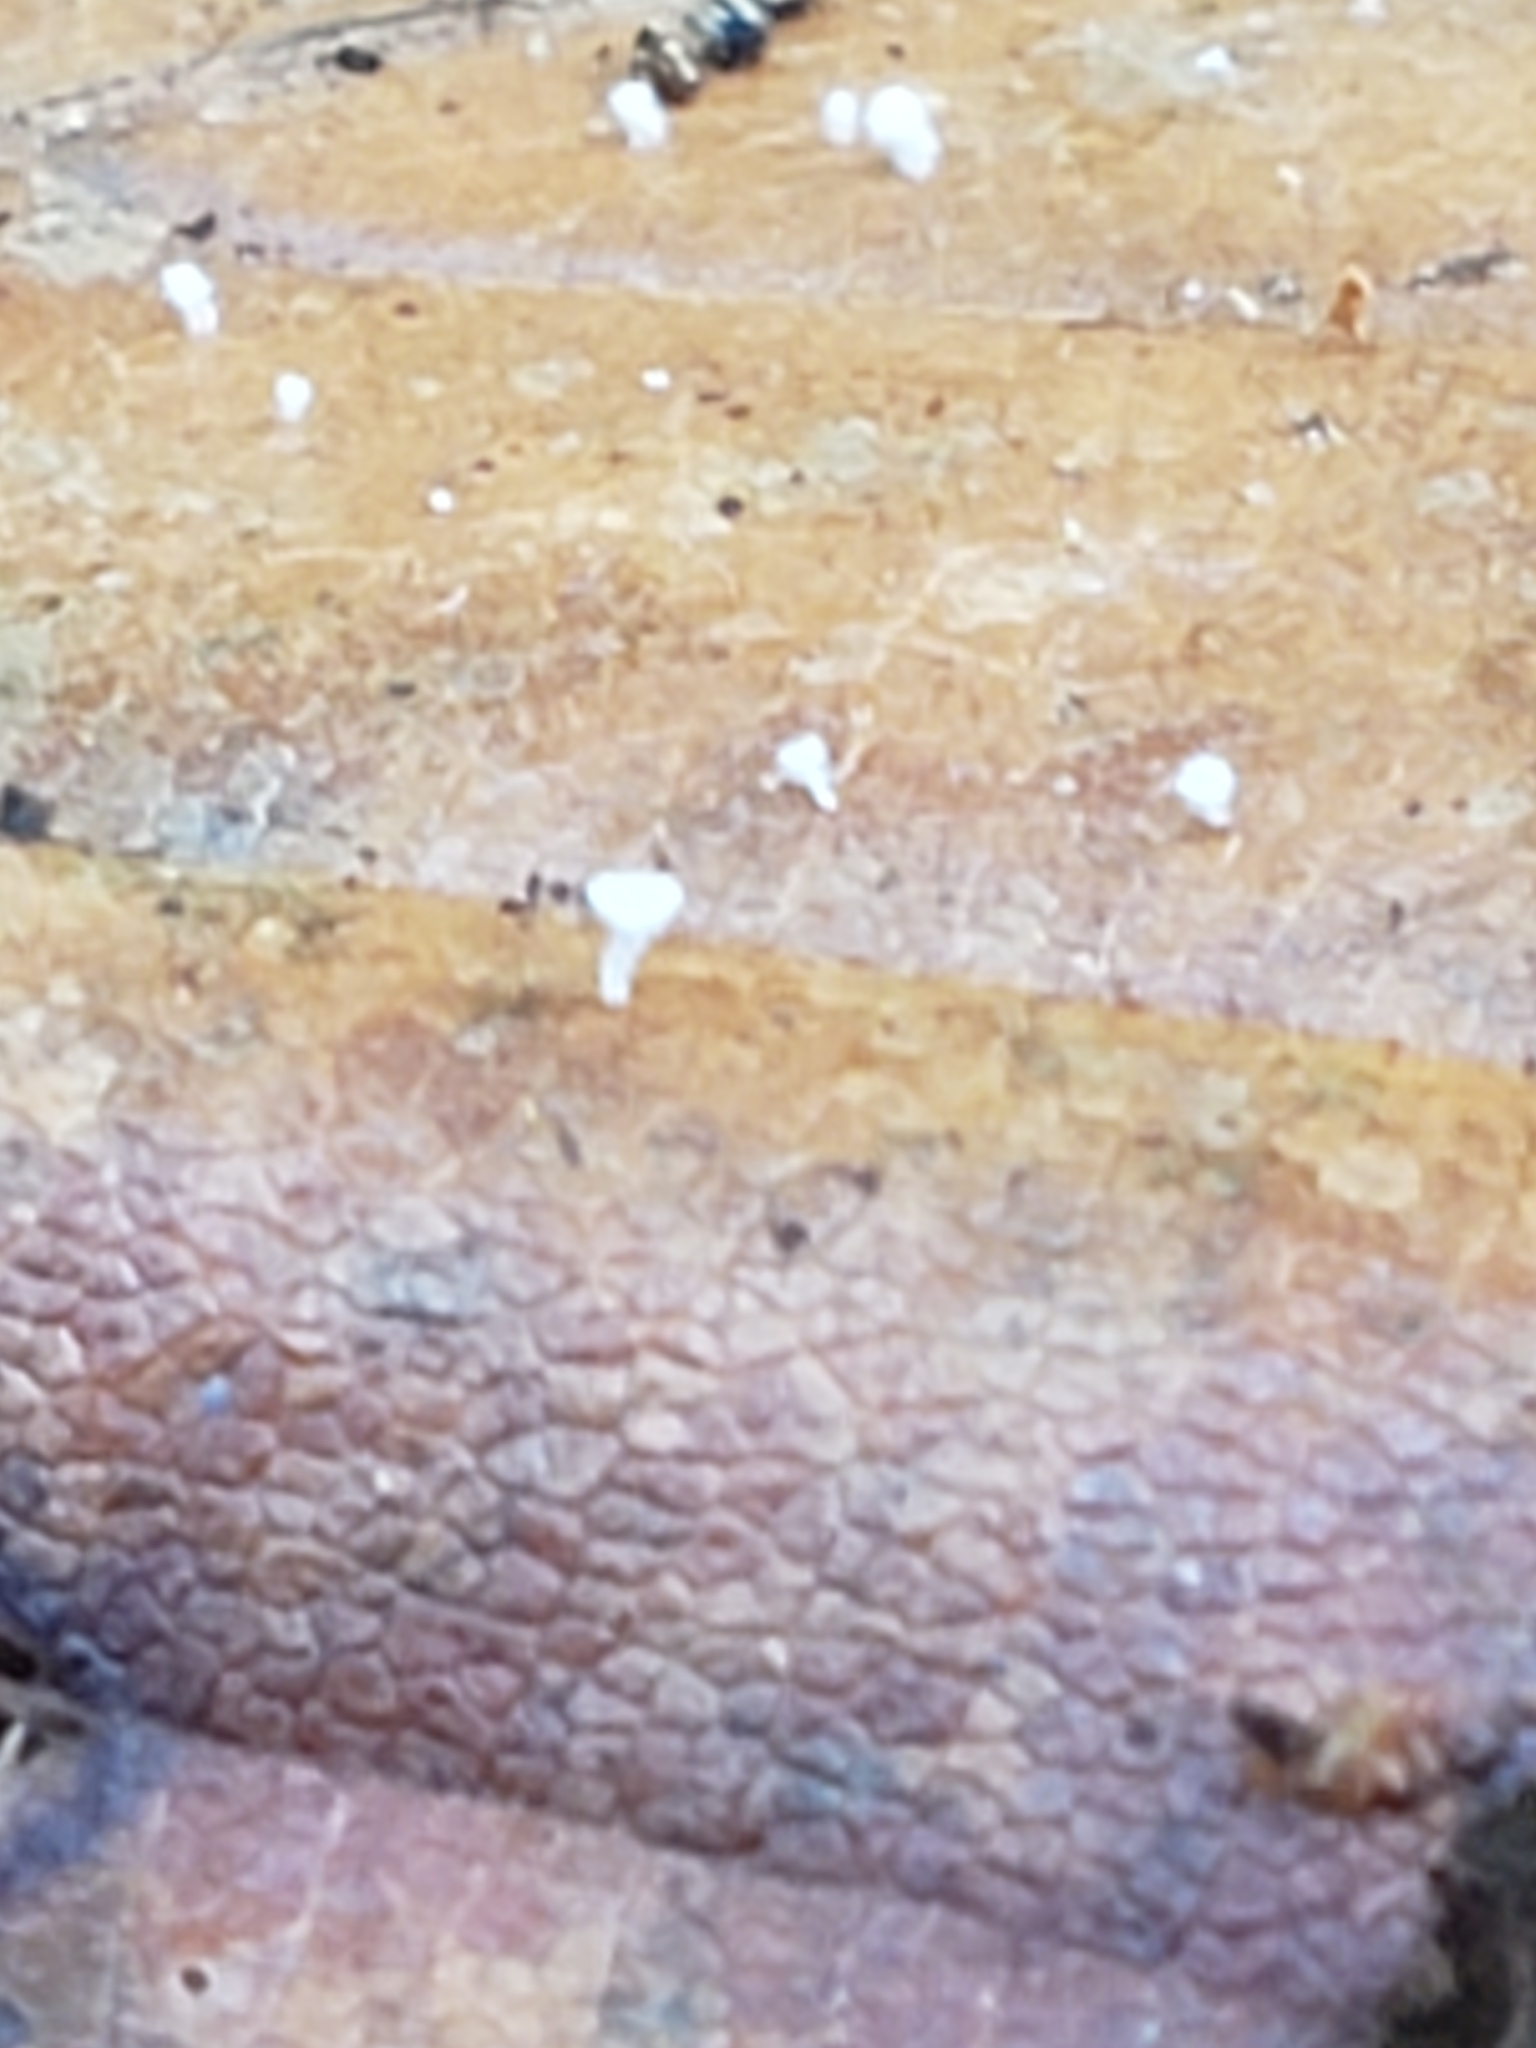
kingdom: Fungi
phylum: Ascomycota
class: Leotiomycetes
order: Helotiales
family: Lachnaceae
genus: Lachnum
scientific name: Lachnum virgineum
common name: Snowy disco
